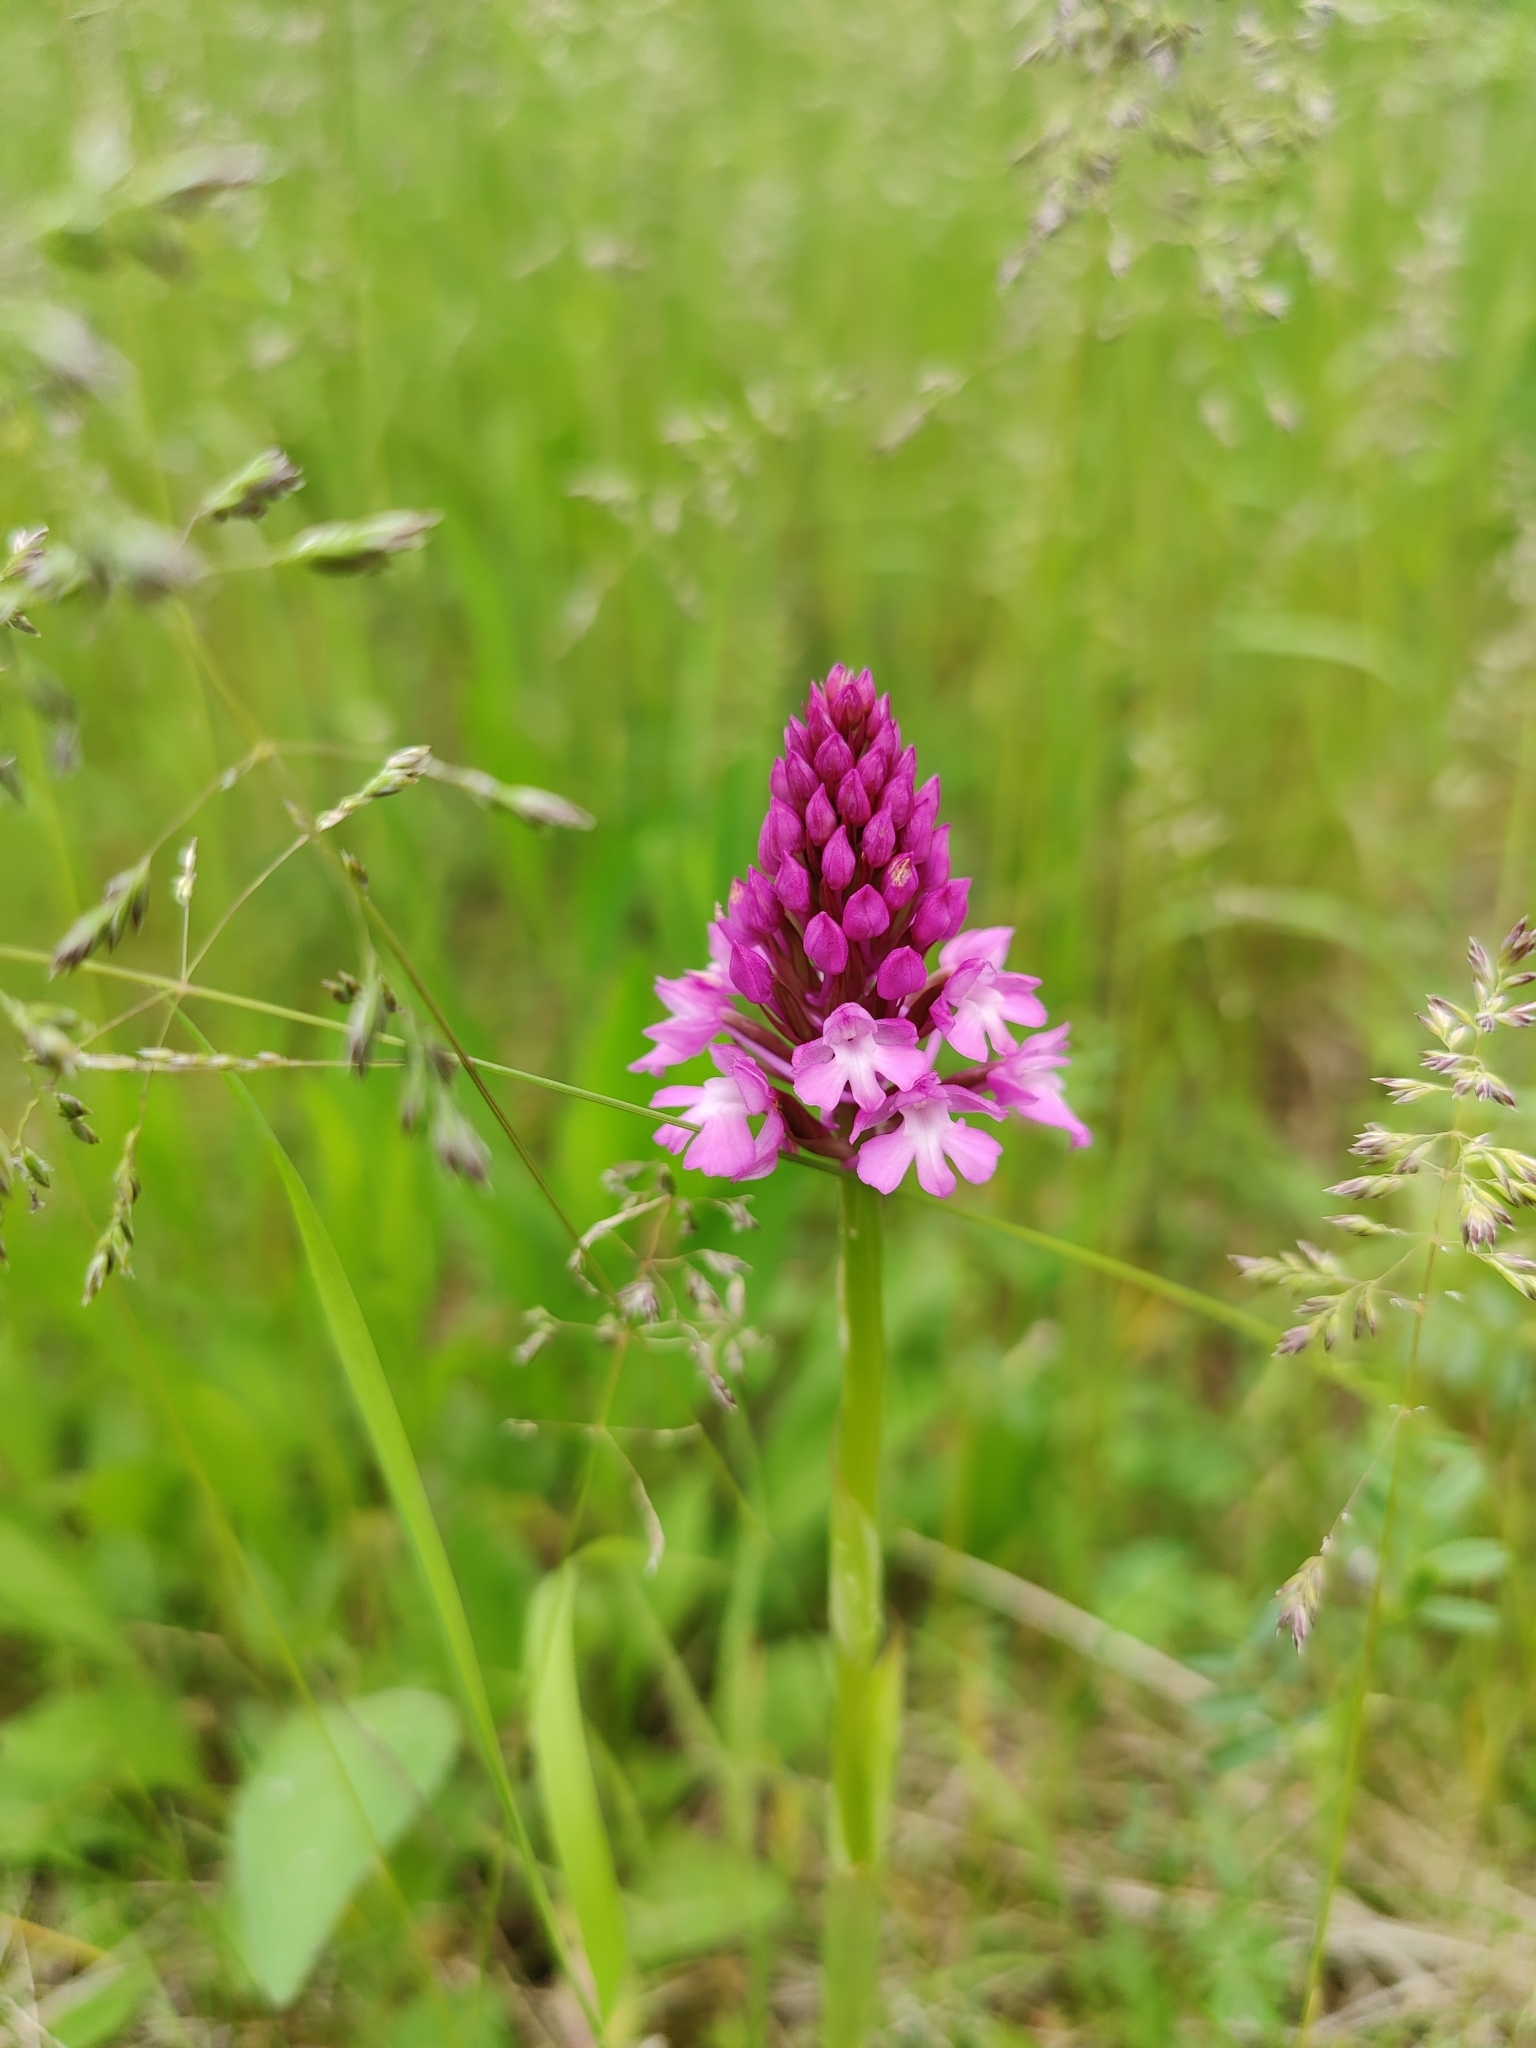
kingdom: Plantae
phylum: Tracheophyta
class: Liliopsida
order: Asparagales
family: Orchidaceae
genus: Anacamptis
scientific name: Anacamptis pyramidalis
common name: Pyramidal orchid
